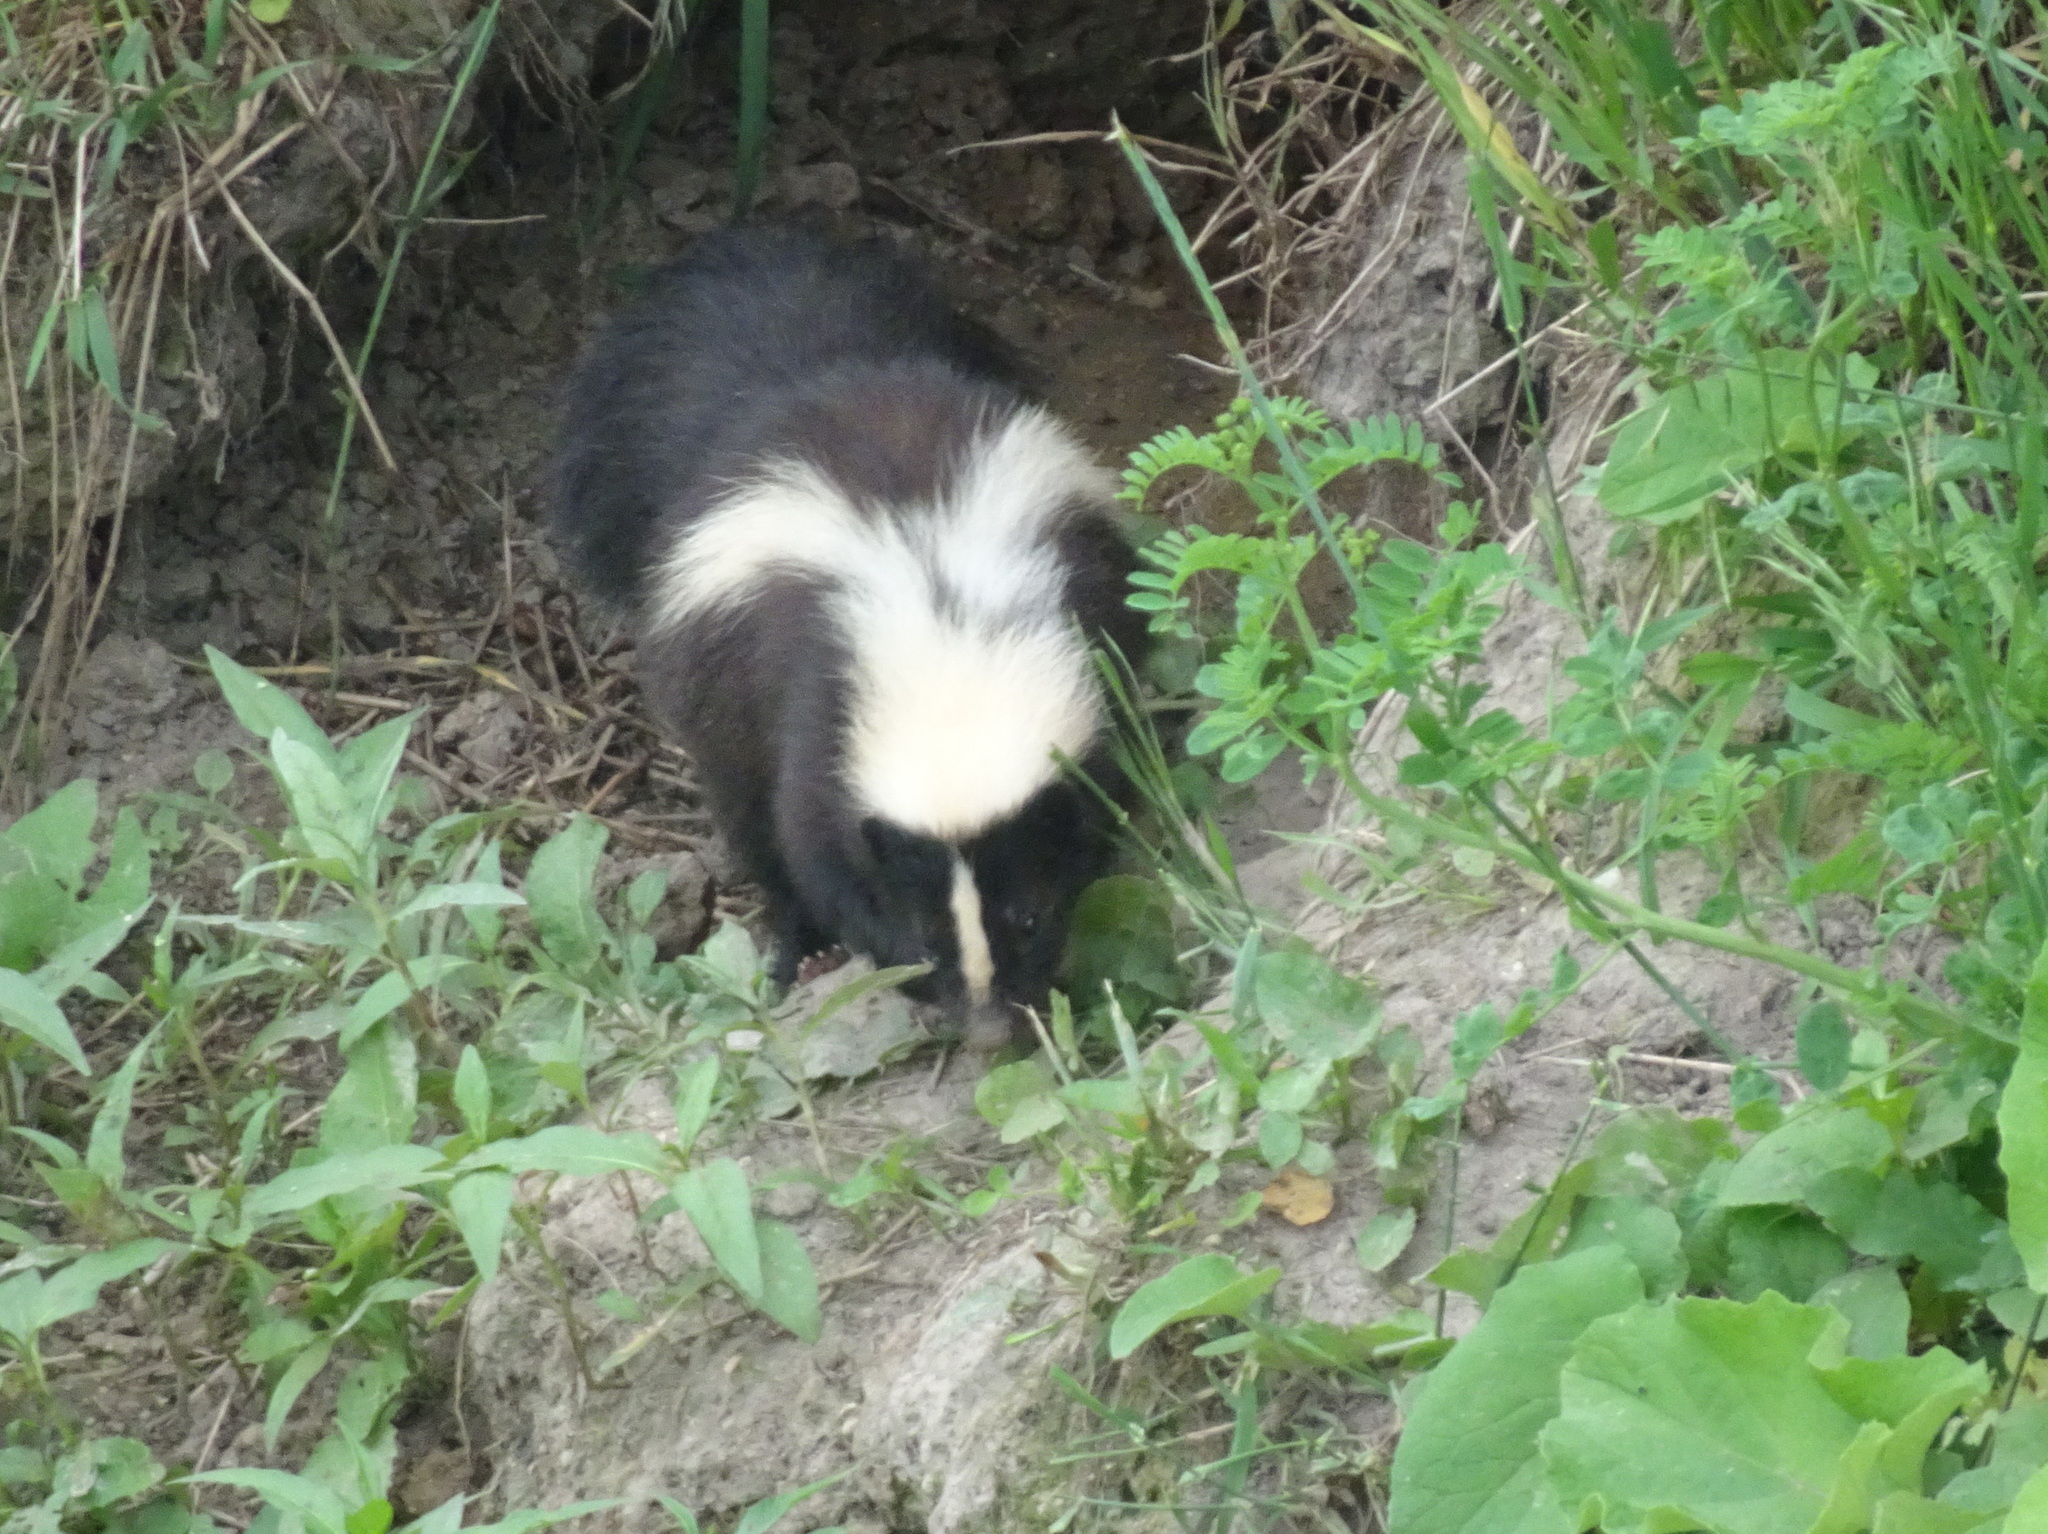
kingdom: Animalia
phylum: Chordata
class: Mammalia
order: Carnivora
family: Mephitidae
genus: Mephitis
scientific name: Mephitis mephitis
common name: Striped skunk
